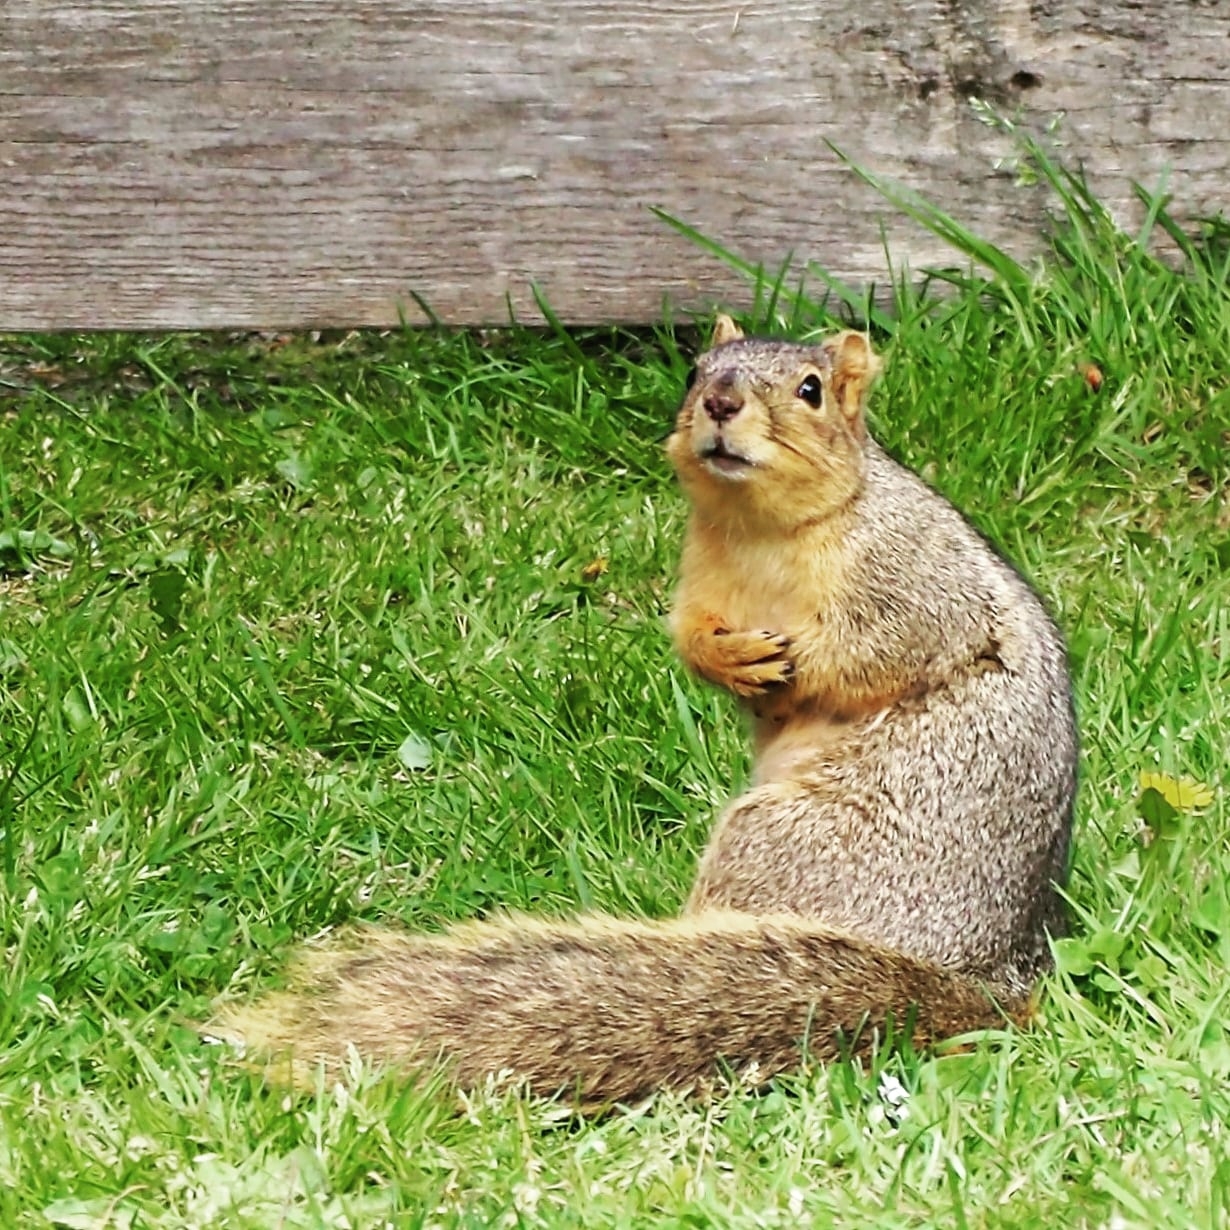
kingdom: Animalia
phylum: Chordata
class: Mammalia
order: Rodentia
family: Sciuridae
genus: Sciurus
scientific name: Sciurus niger
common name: Fox squirrel
